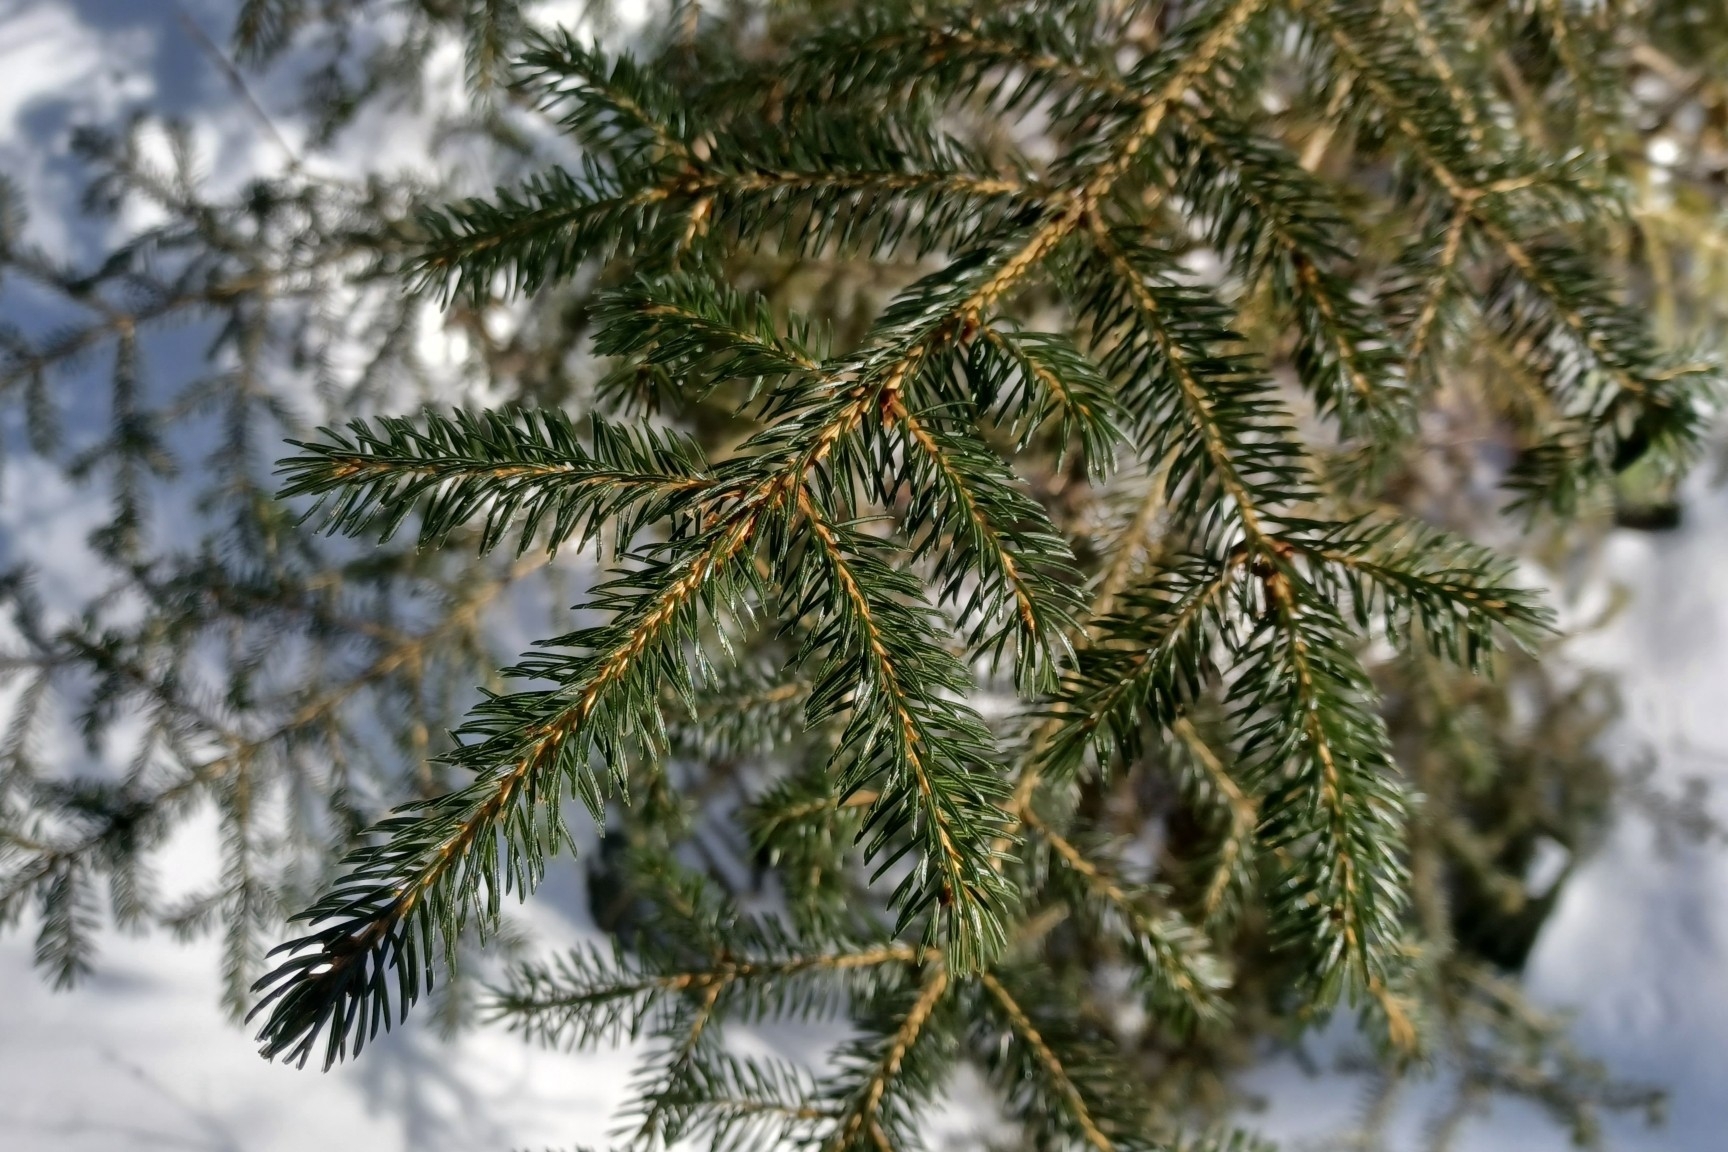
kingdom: Plantae
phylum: Tracheophyta
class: Pinopsida
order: Pinales
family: Pinaceae
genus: Picea
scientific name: Picea rubens
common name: Red spruce
